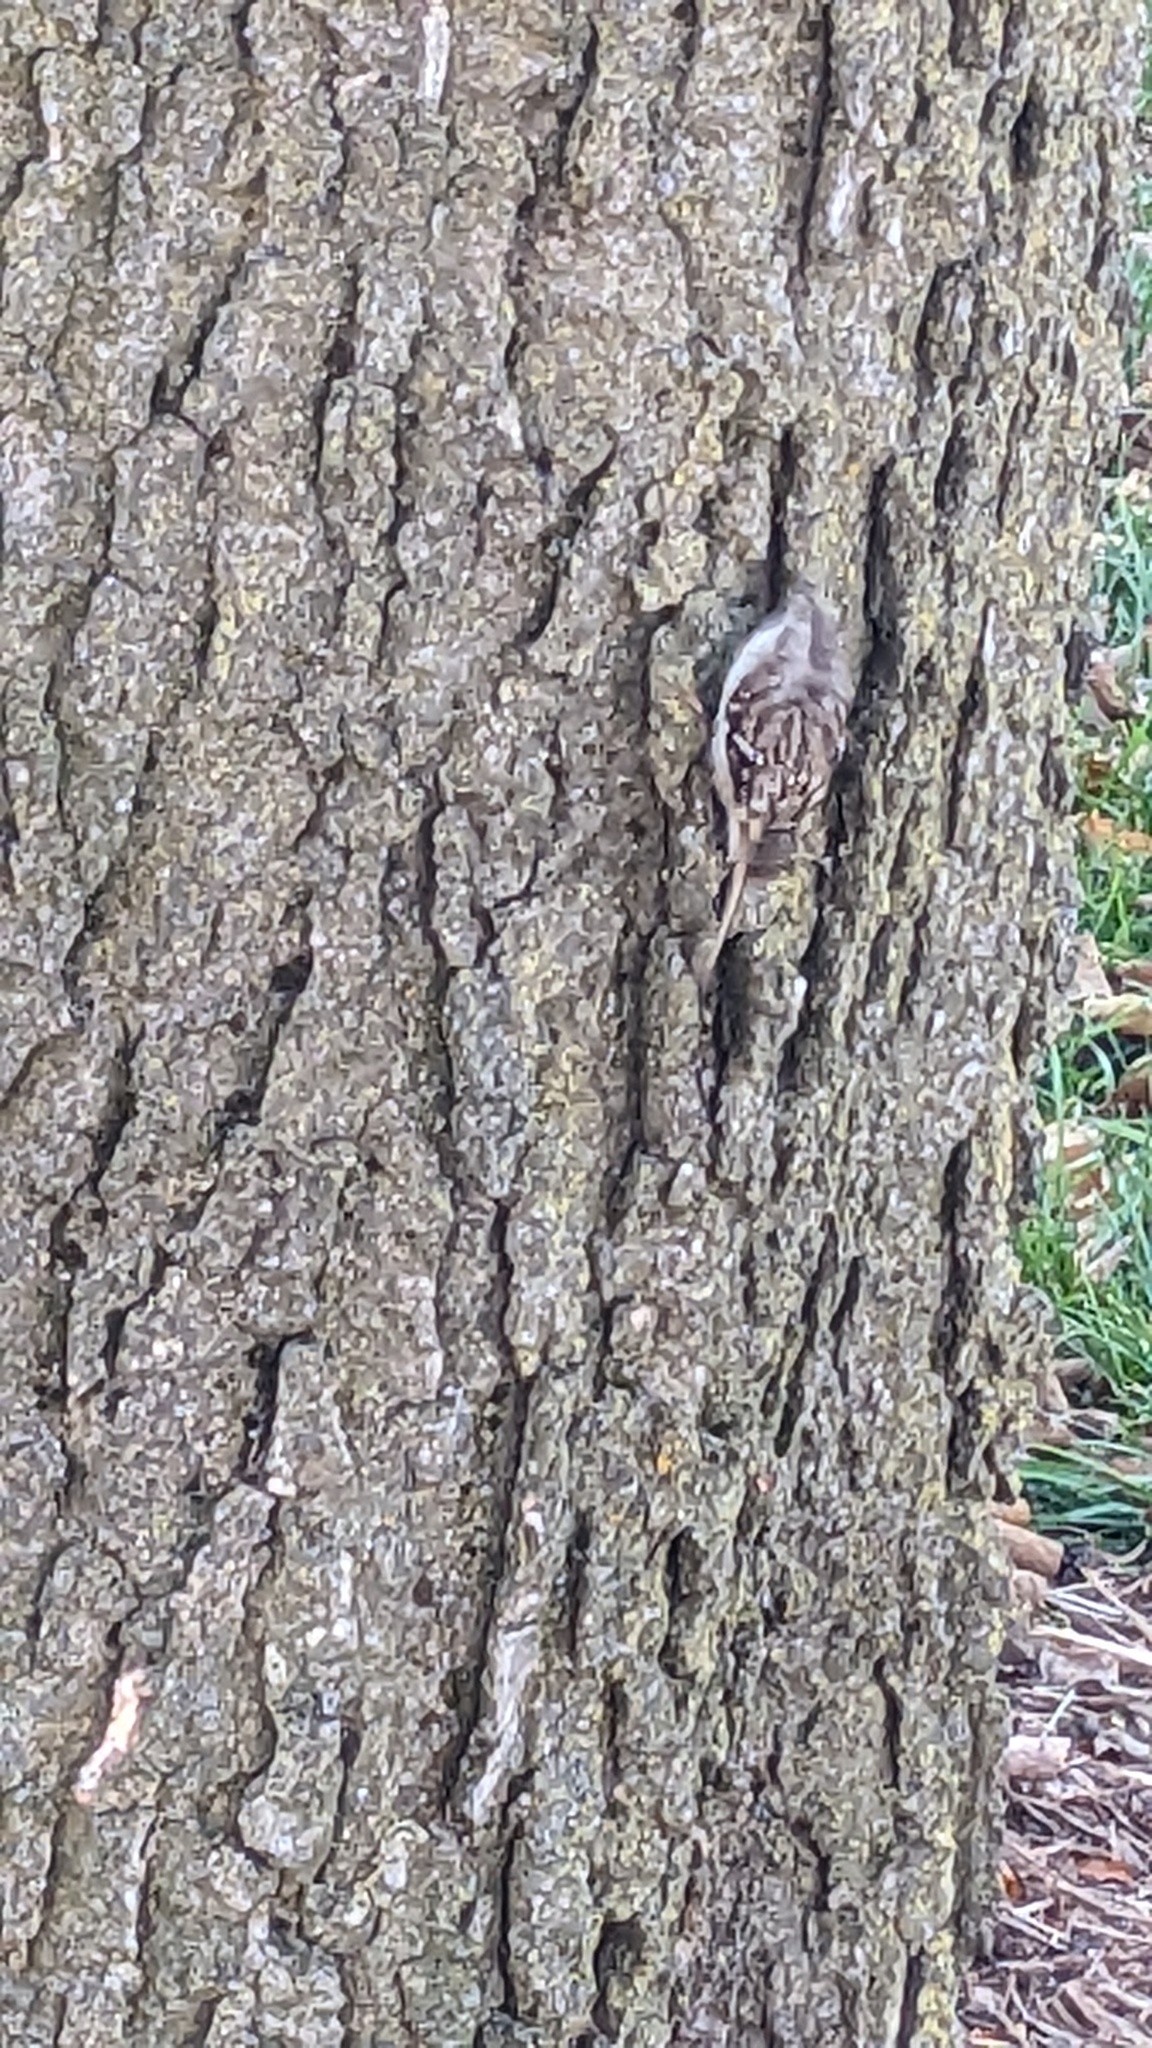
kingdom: Animalia
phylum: Chordata
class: Aves
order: Passeriformes
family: Certhiidae
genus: Certhia
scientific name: Certhia americana
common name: Brown creeper
